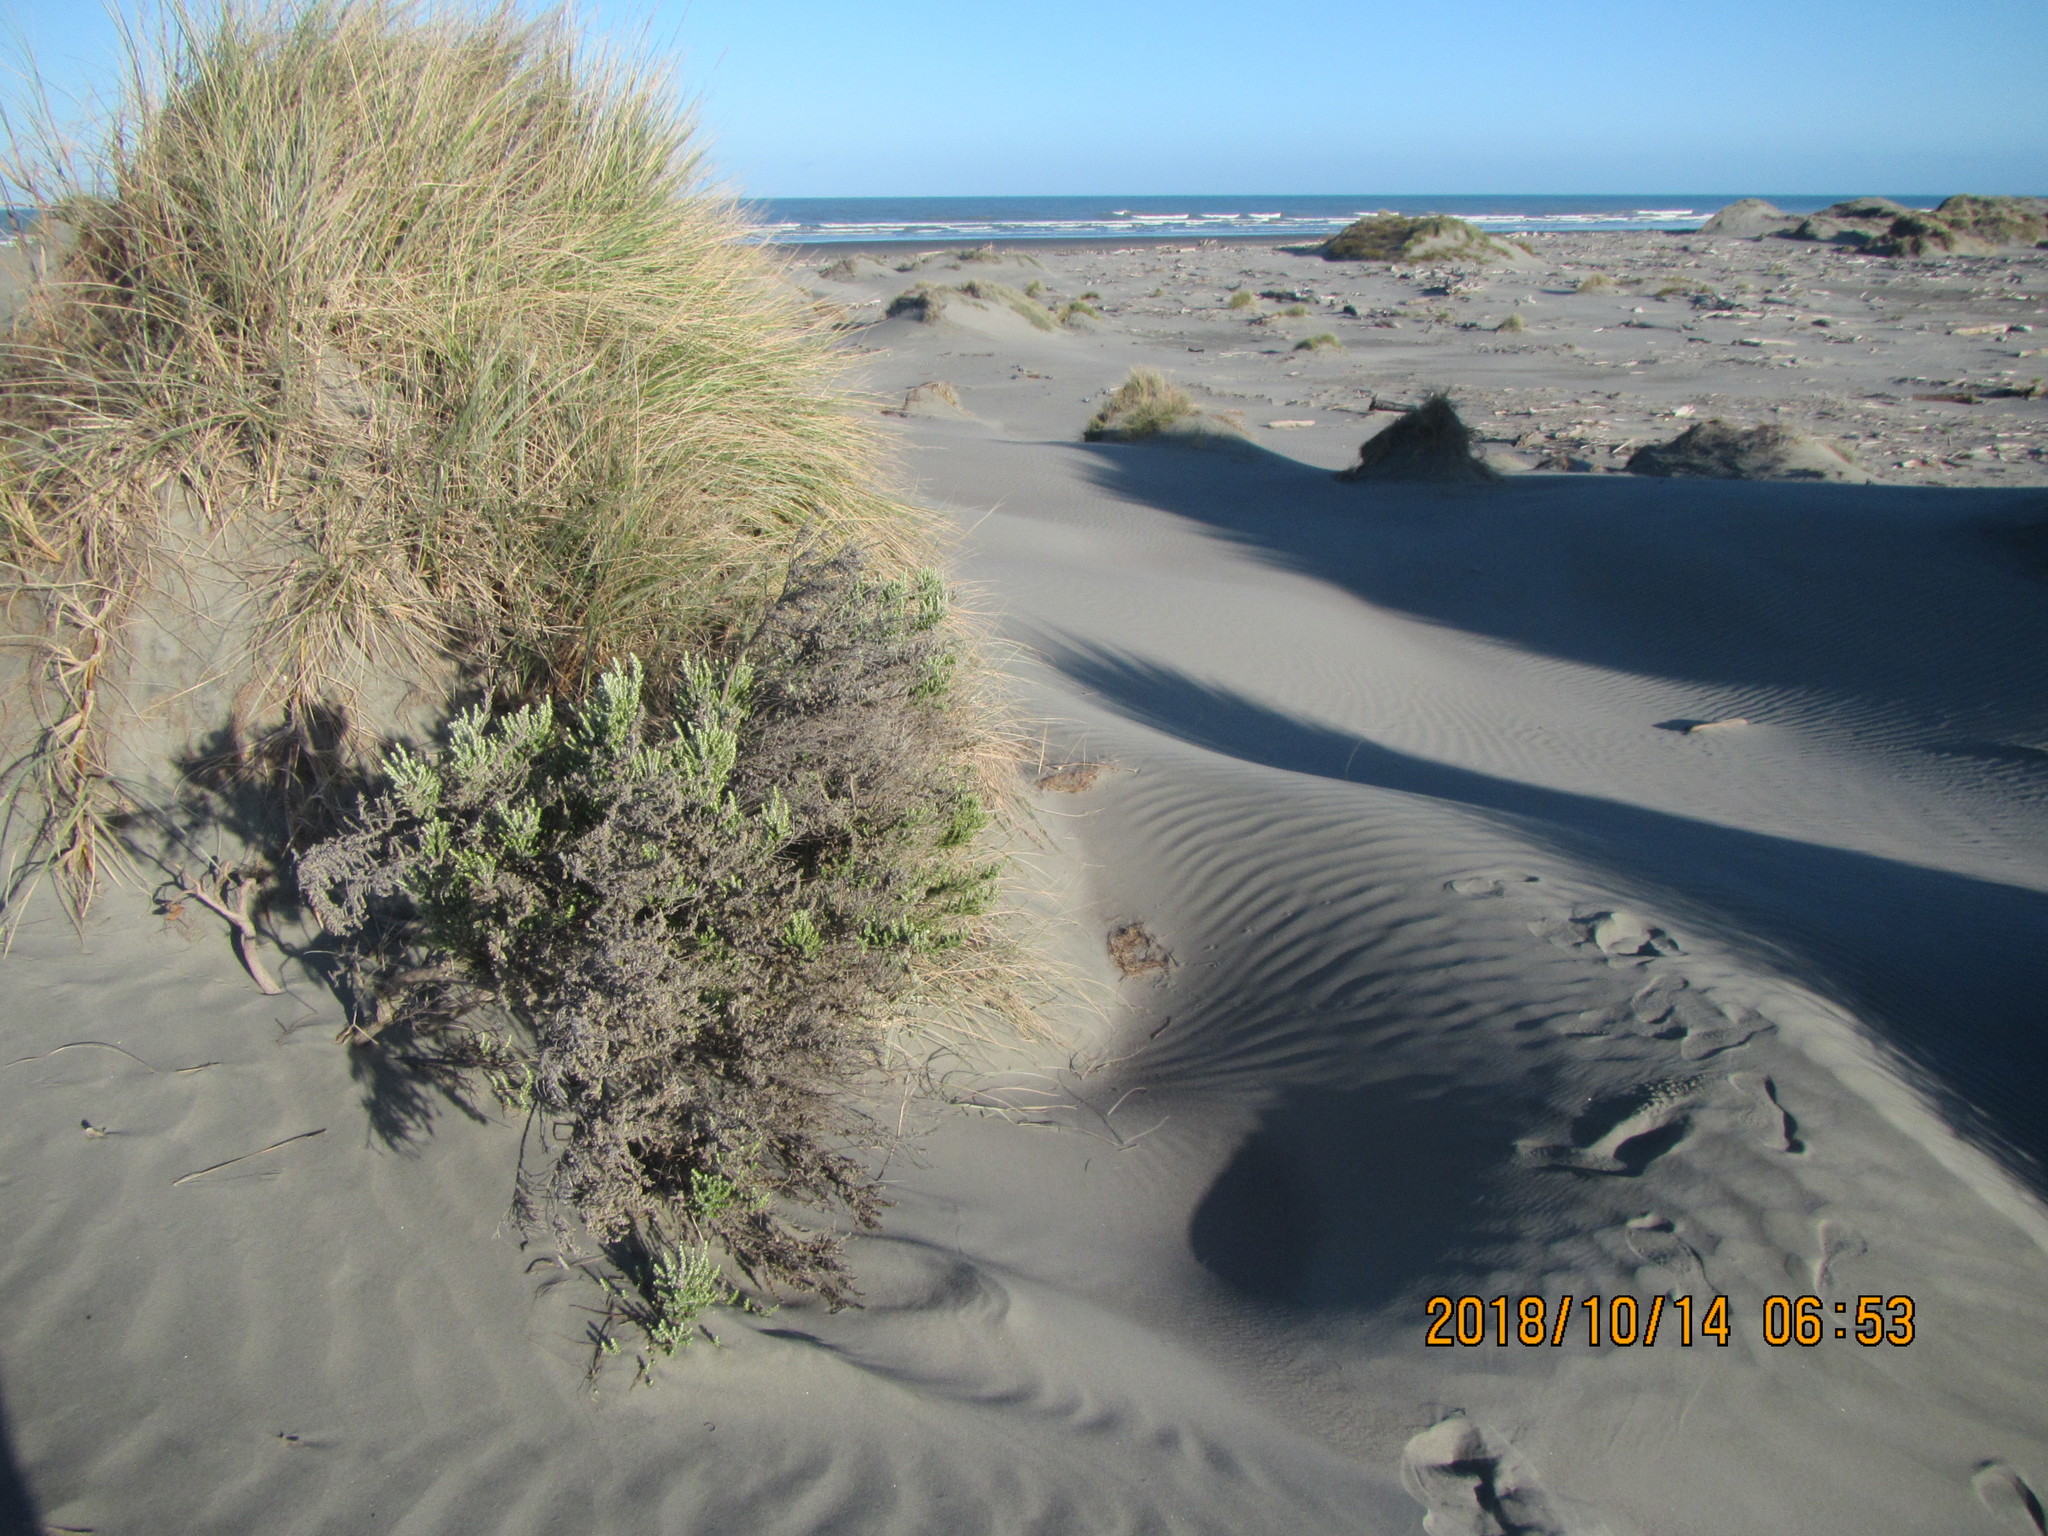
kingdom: Plantae
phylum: Tracheophyta
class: Magnoliopsida
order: Asterales
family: Asteraceae
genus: Ozothamnus
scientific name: Ozothamnus leptophyllus
